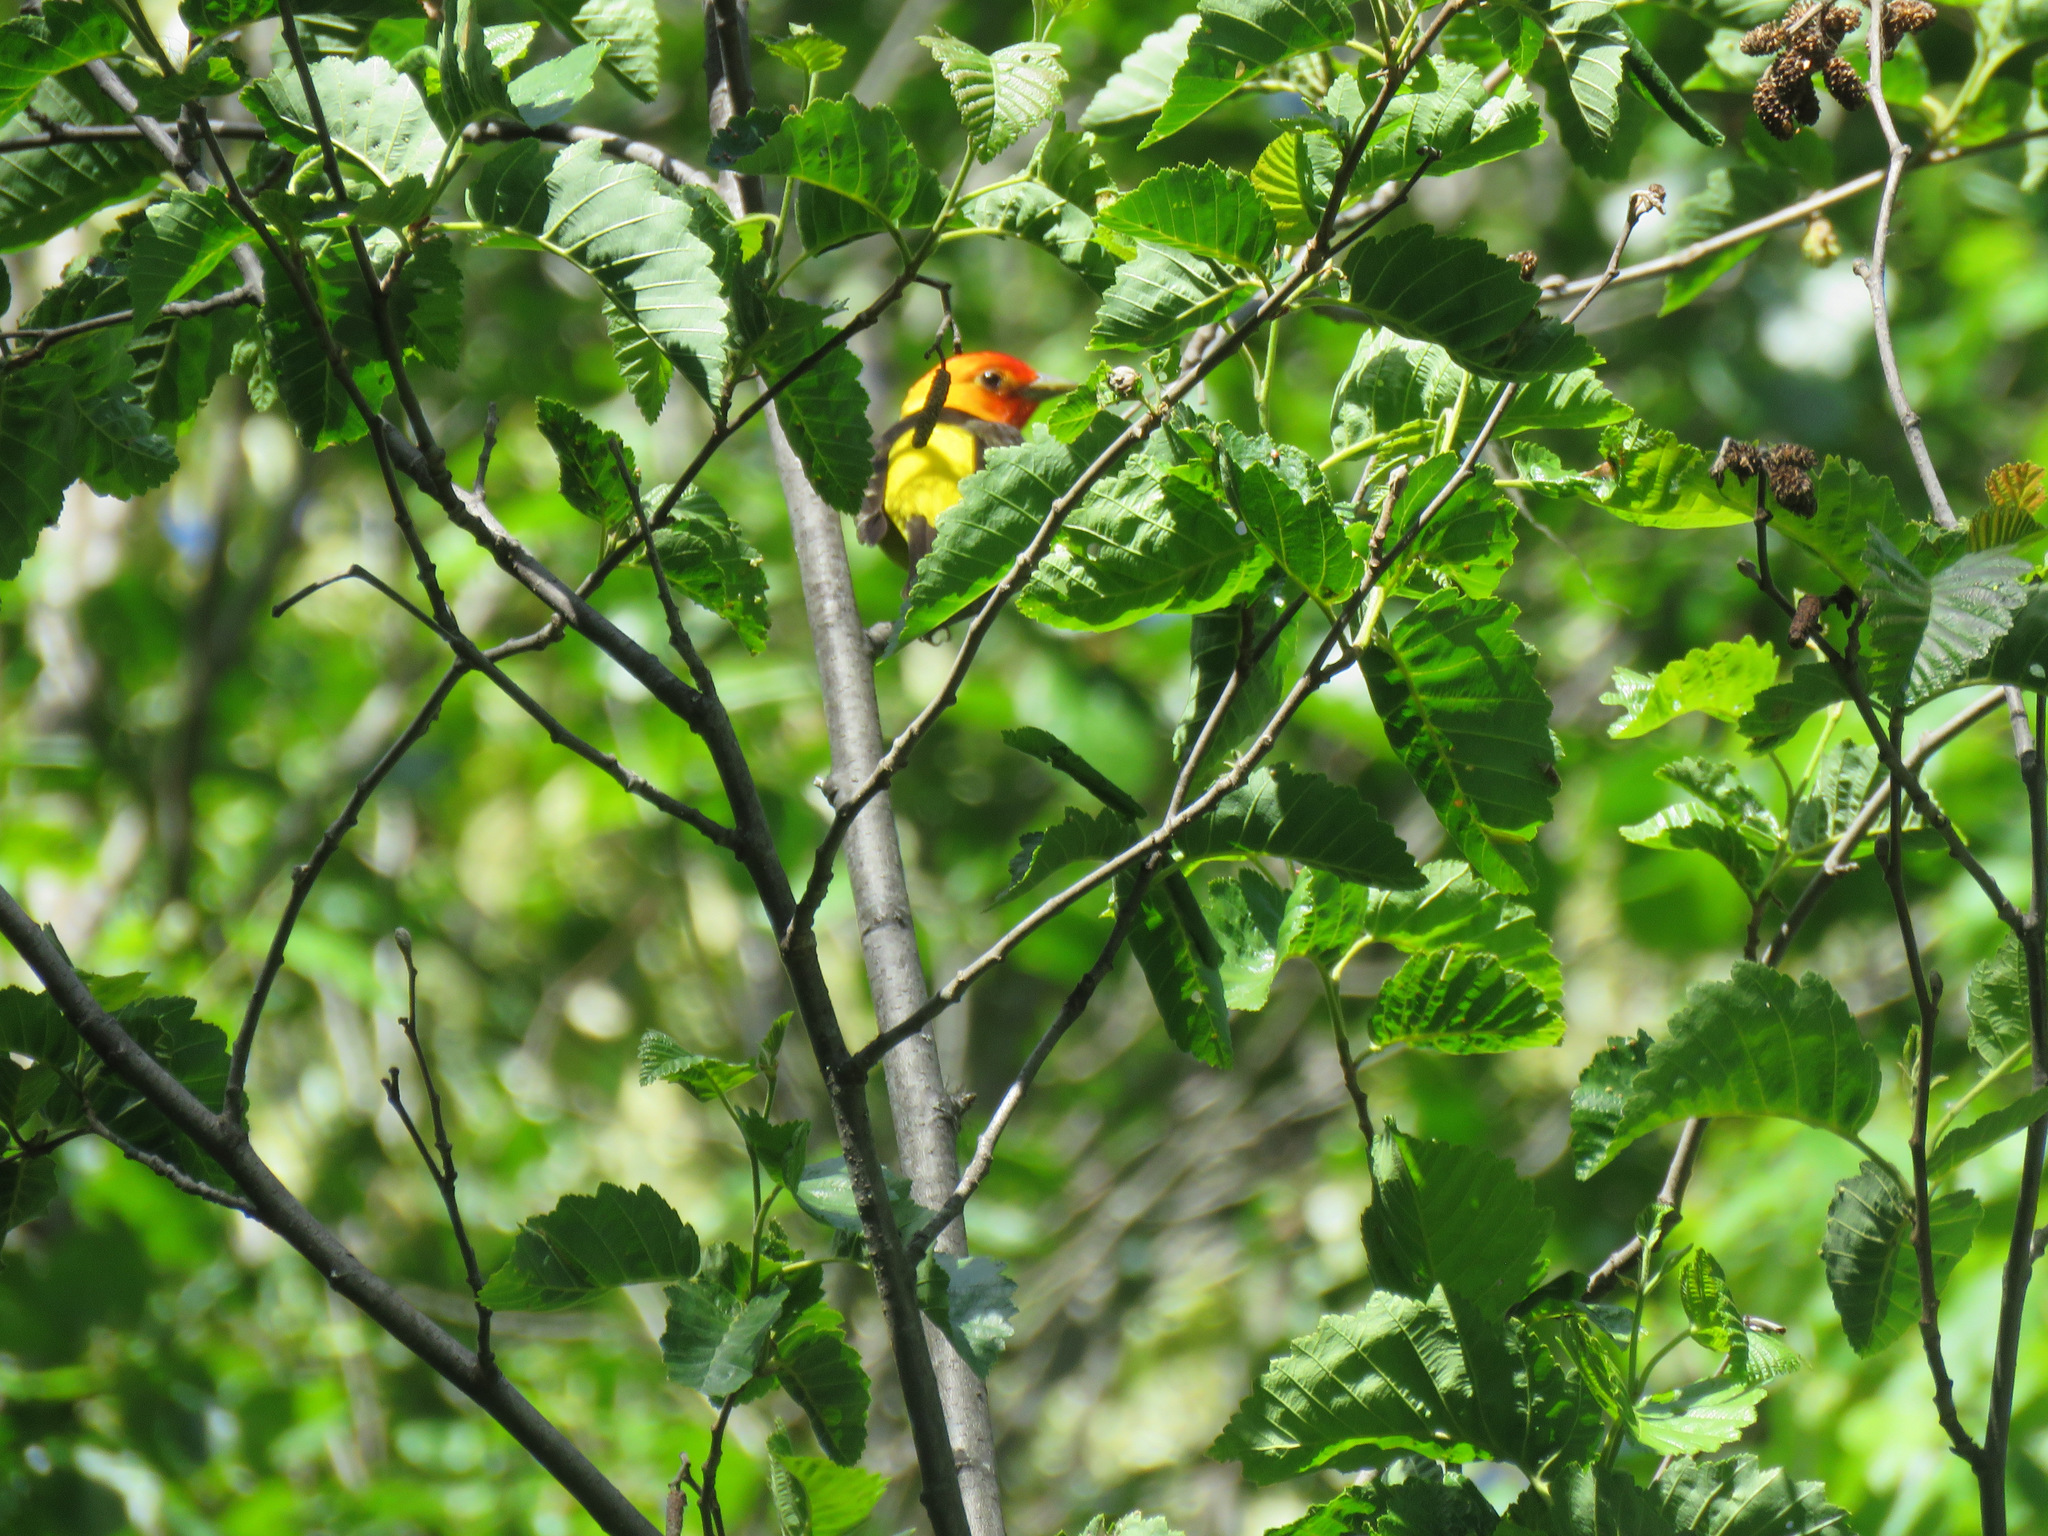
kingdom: Animalia
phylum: Chordata
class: Aves
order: Passeriformes
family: Cardinalidae
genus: Piranga
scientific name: Piranga ludoviciana
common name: Western tanager
